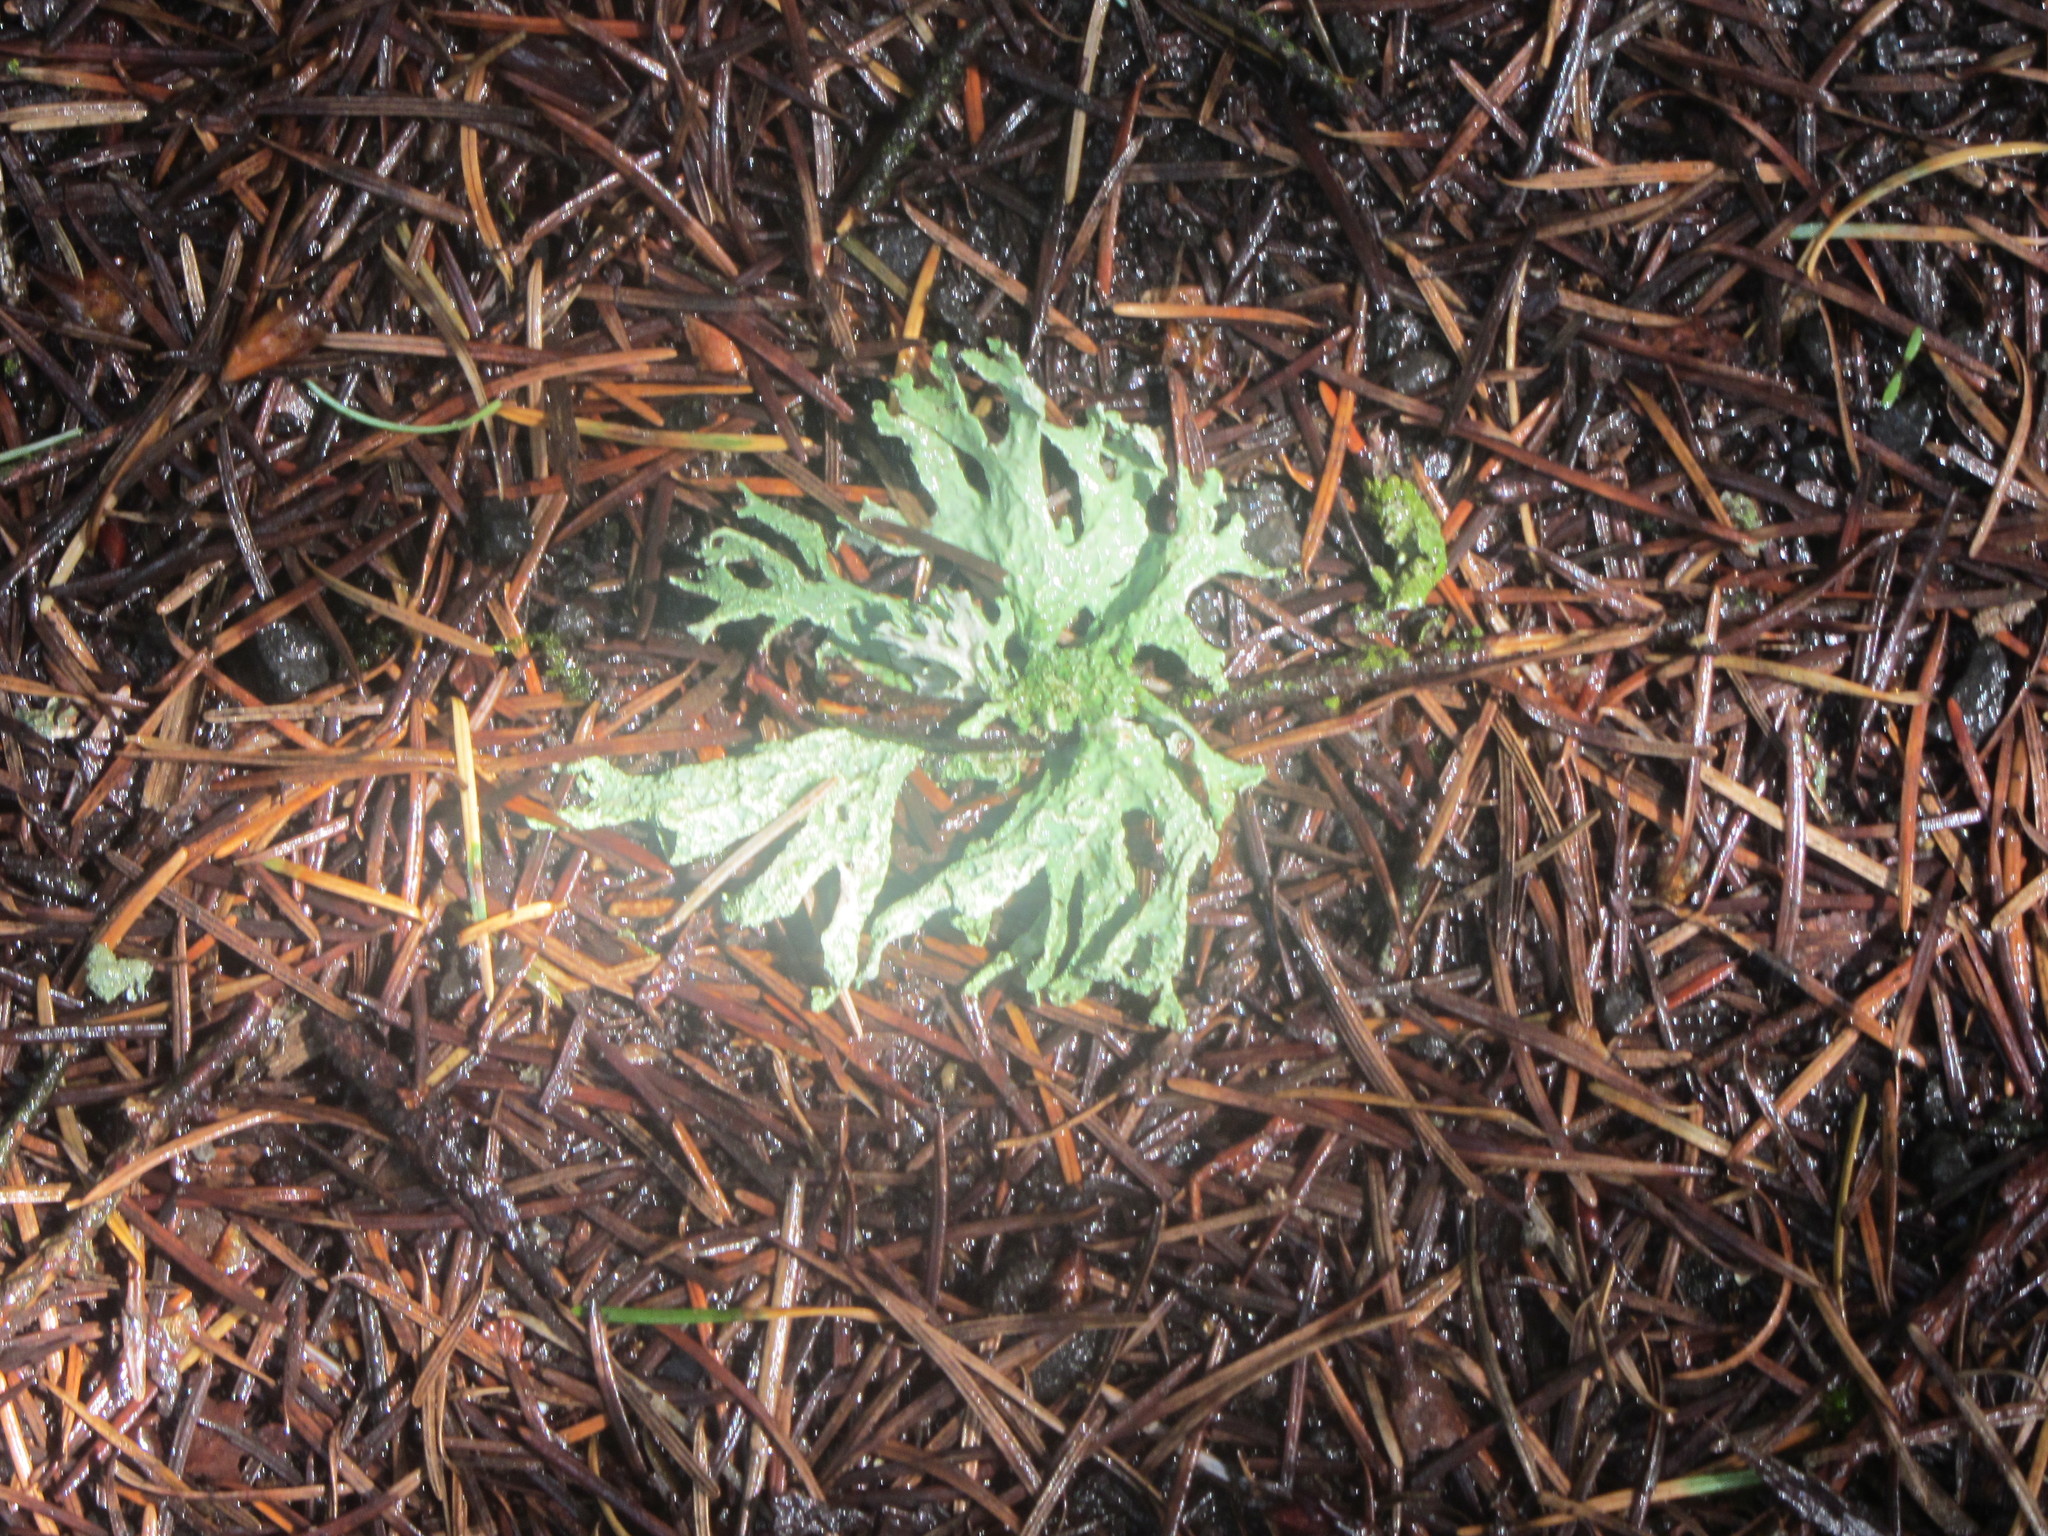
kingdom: Fungi
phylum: Ascomycota
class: Lecanoromycetes
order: Lecanorales
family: Parmeliaceae
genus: Evernia
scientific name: Evernia prunastri
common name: Oak moss
